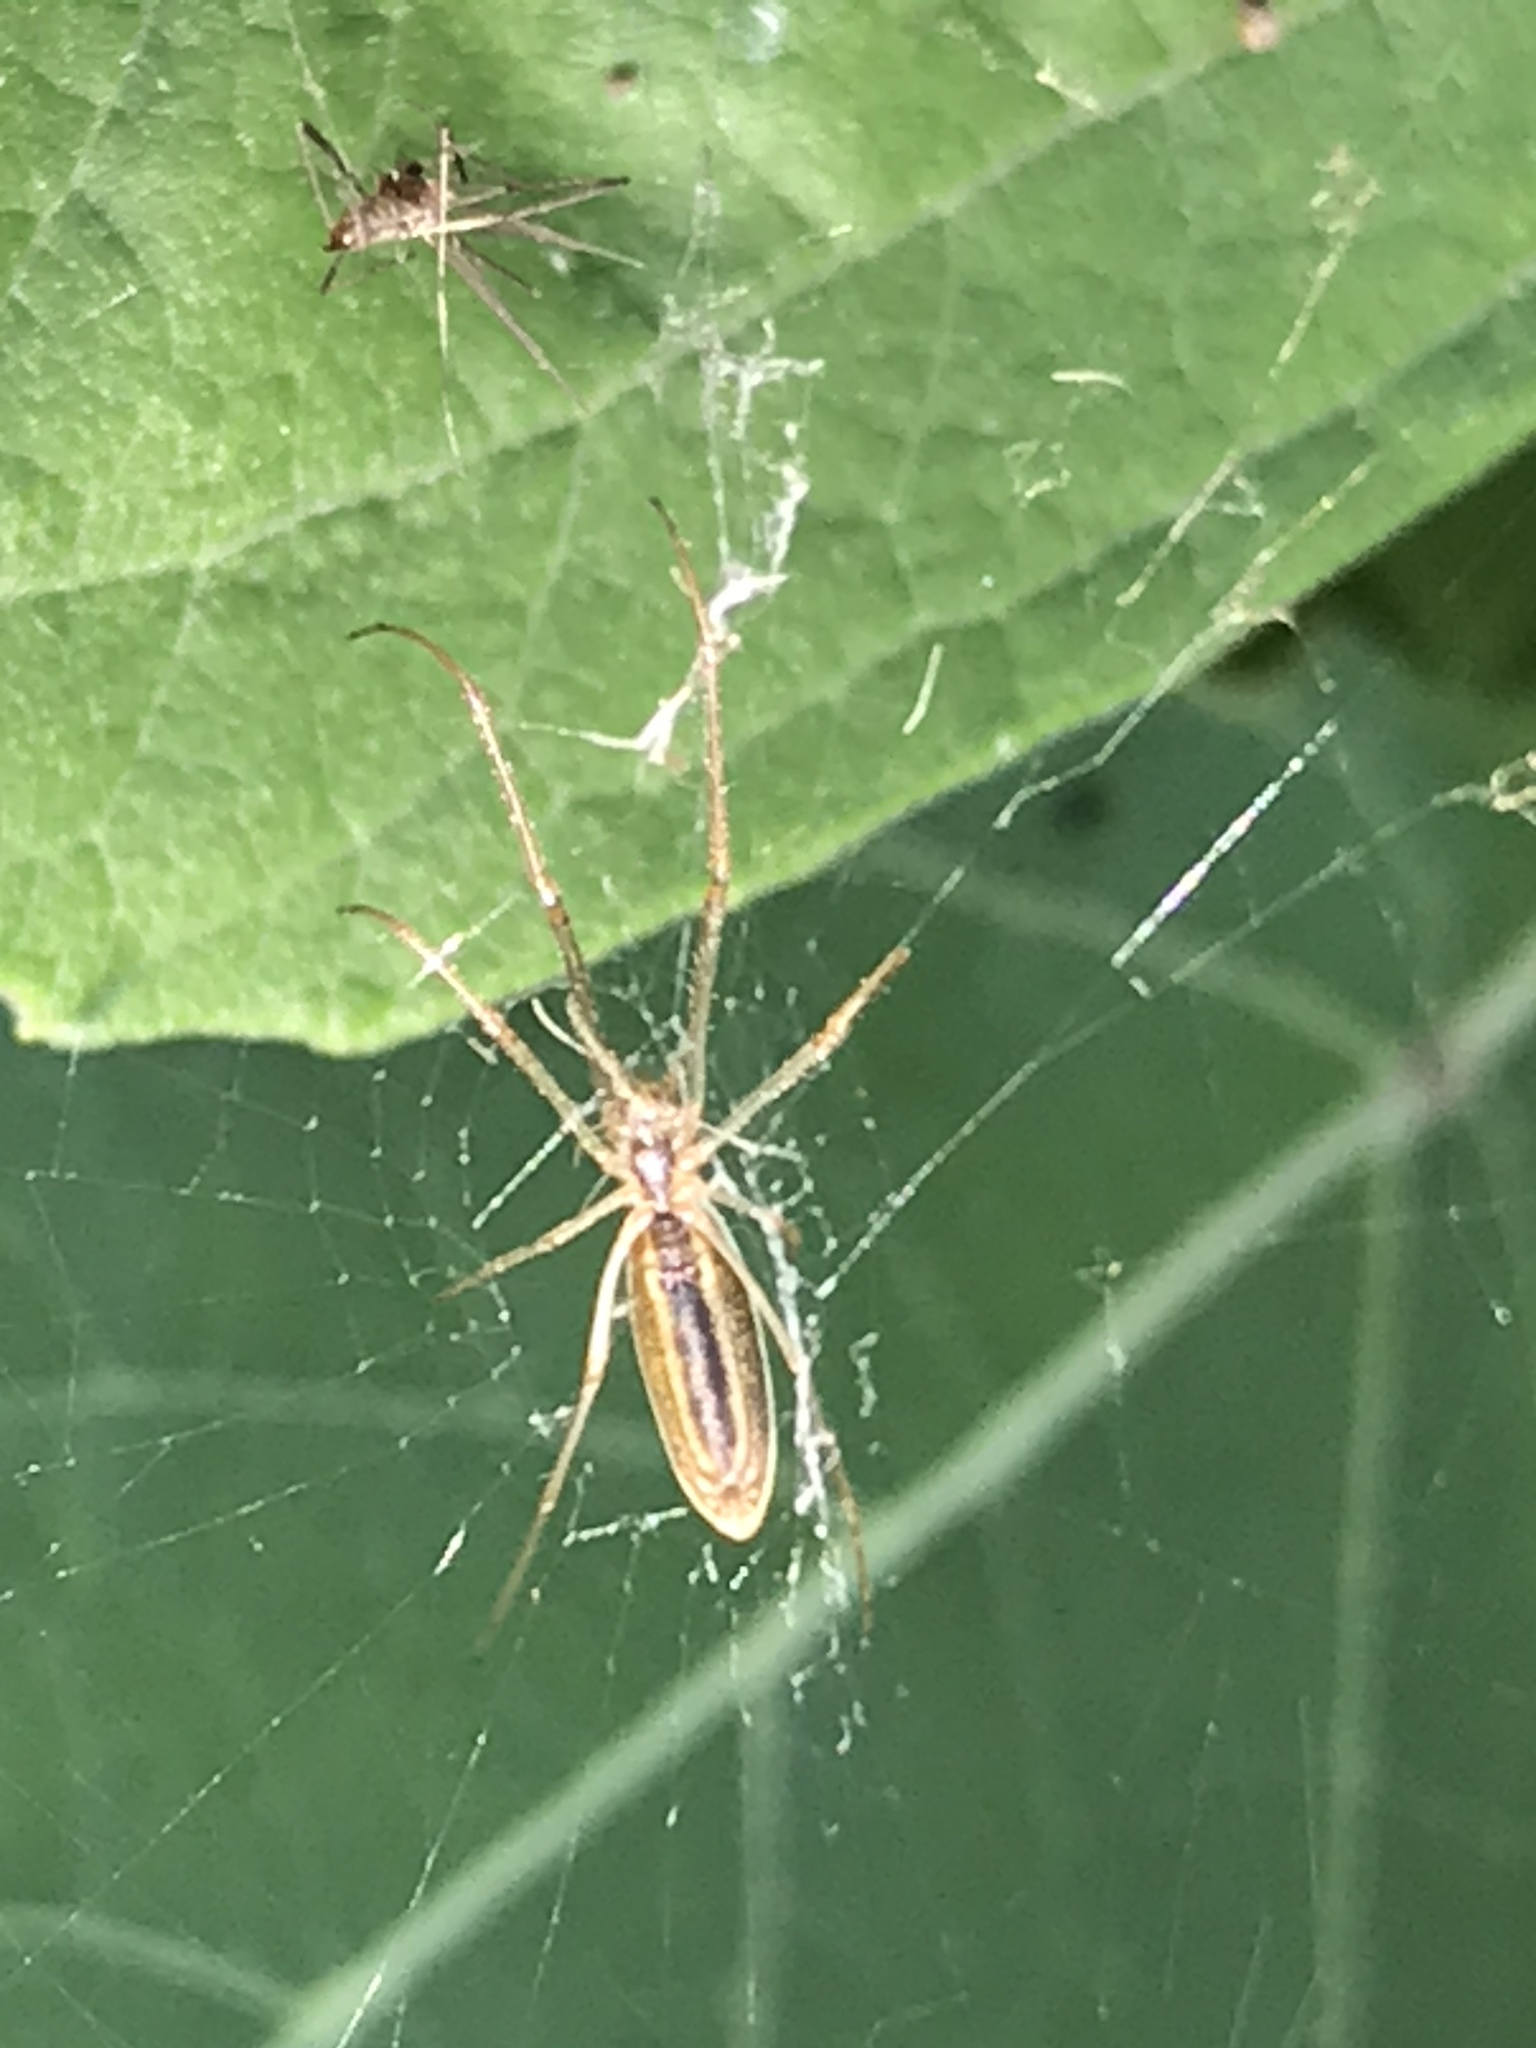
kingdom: Animalia
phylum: Arthropoda
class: Arachnida
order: Araneae
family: Tetragnathidae
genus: Tetragnatha
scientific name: Tetragnatha
